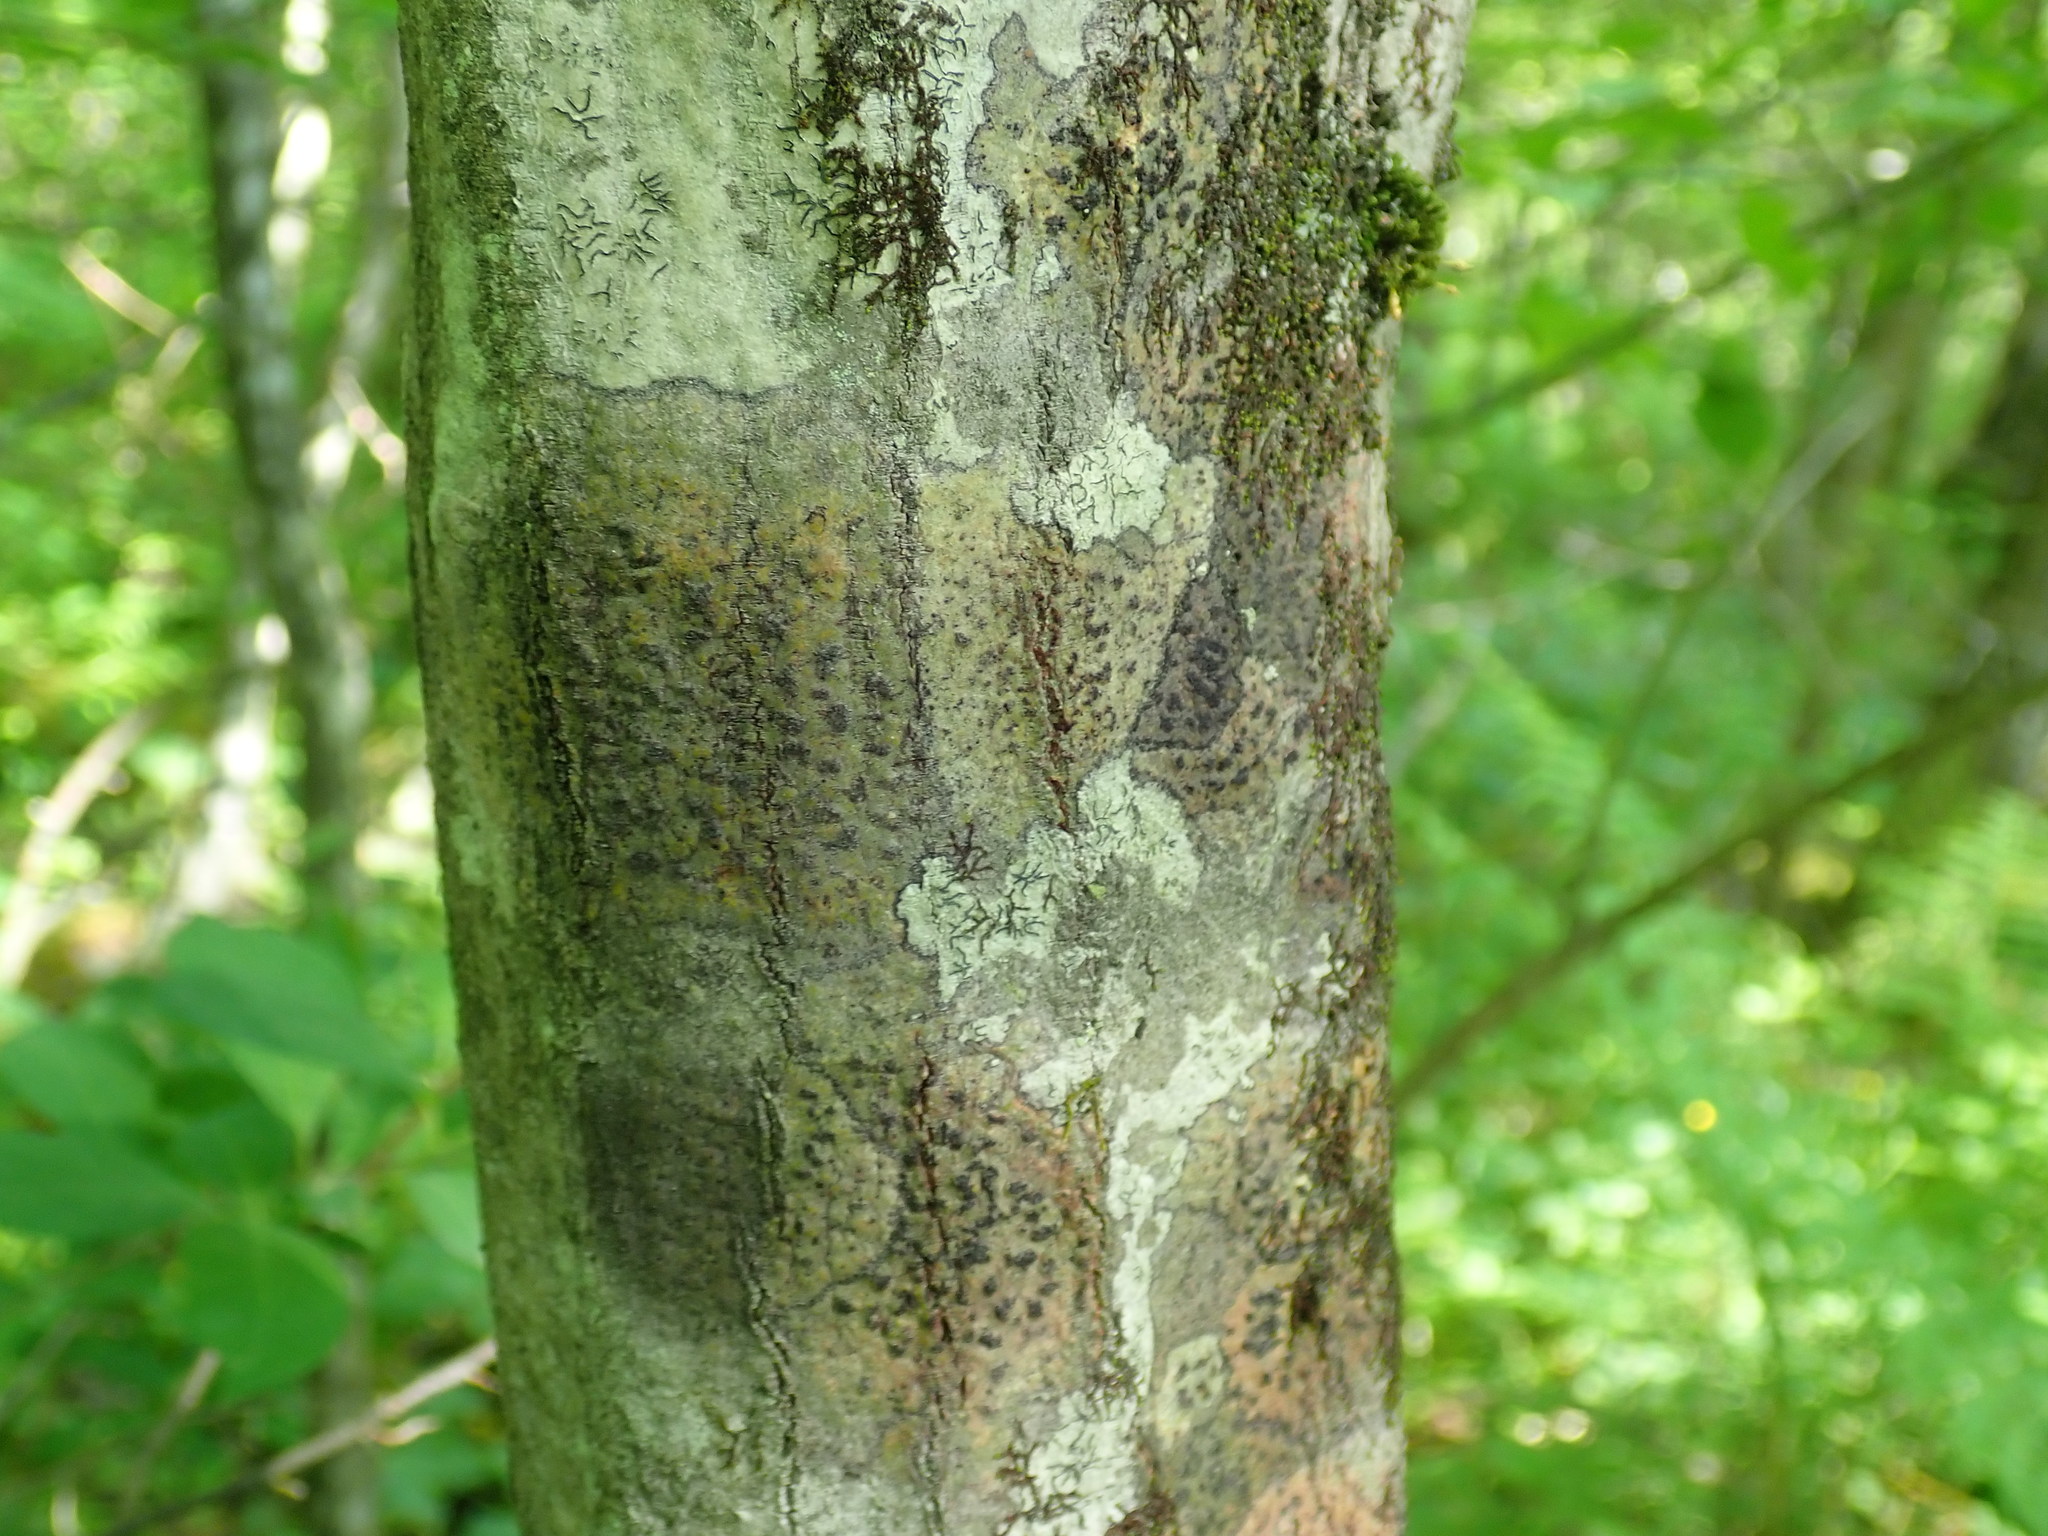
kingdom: Fungi
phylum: Ascomycota
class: Dothideomycetes
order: Trypetheliales
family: Trypetheliaceae
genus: Viridothelium
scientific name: Viridothelium virens
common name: Speckled blister lichen
